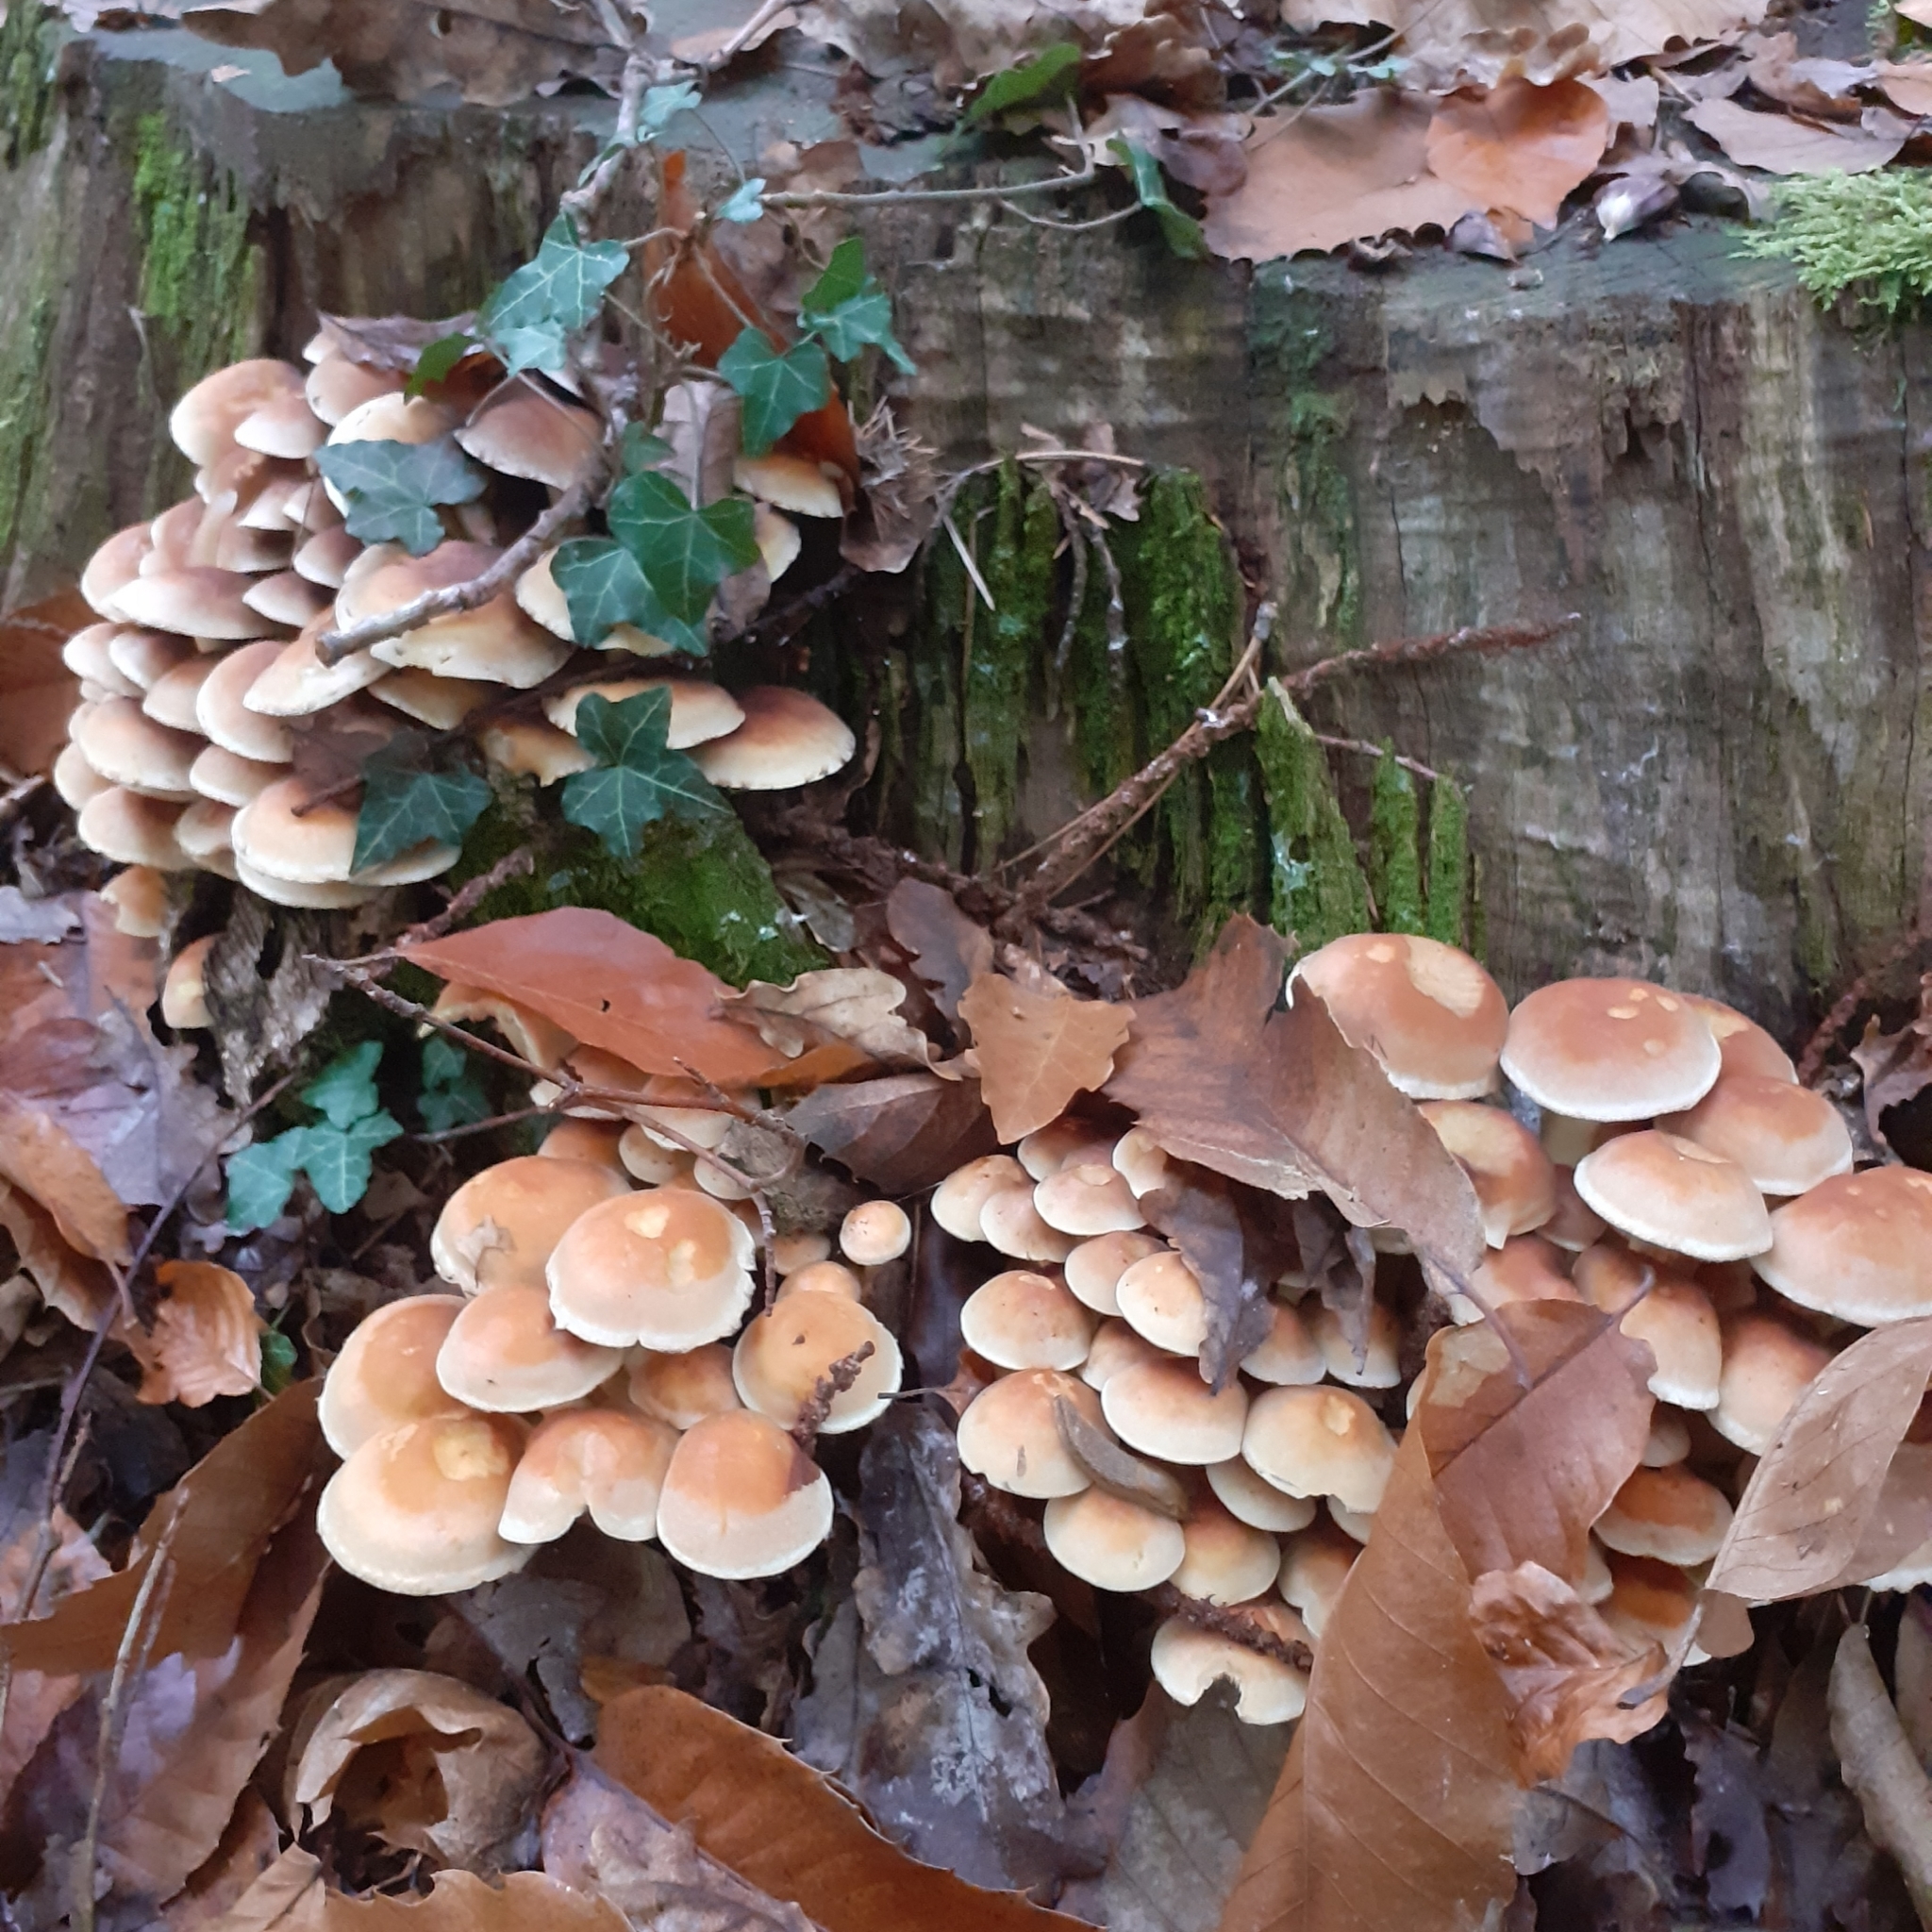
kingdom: Fungi
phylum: Basidiomycota
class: Agaricomycetes
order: Agaricales
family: Strophariaceae
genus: Hypholoma
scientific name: Hypholoma fasciculare
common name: Sulphur tuft
